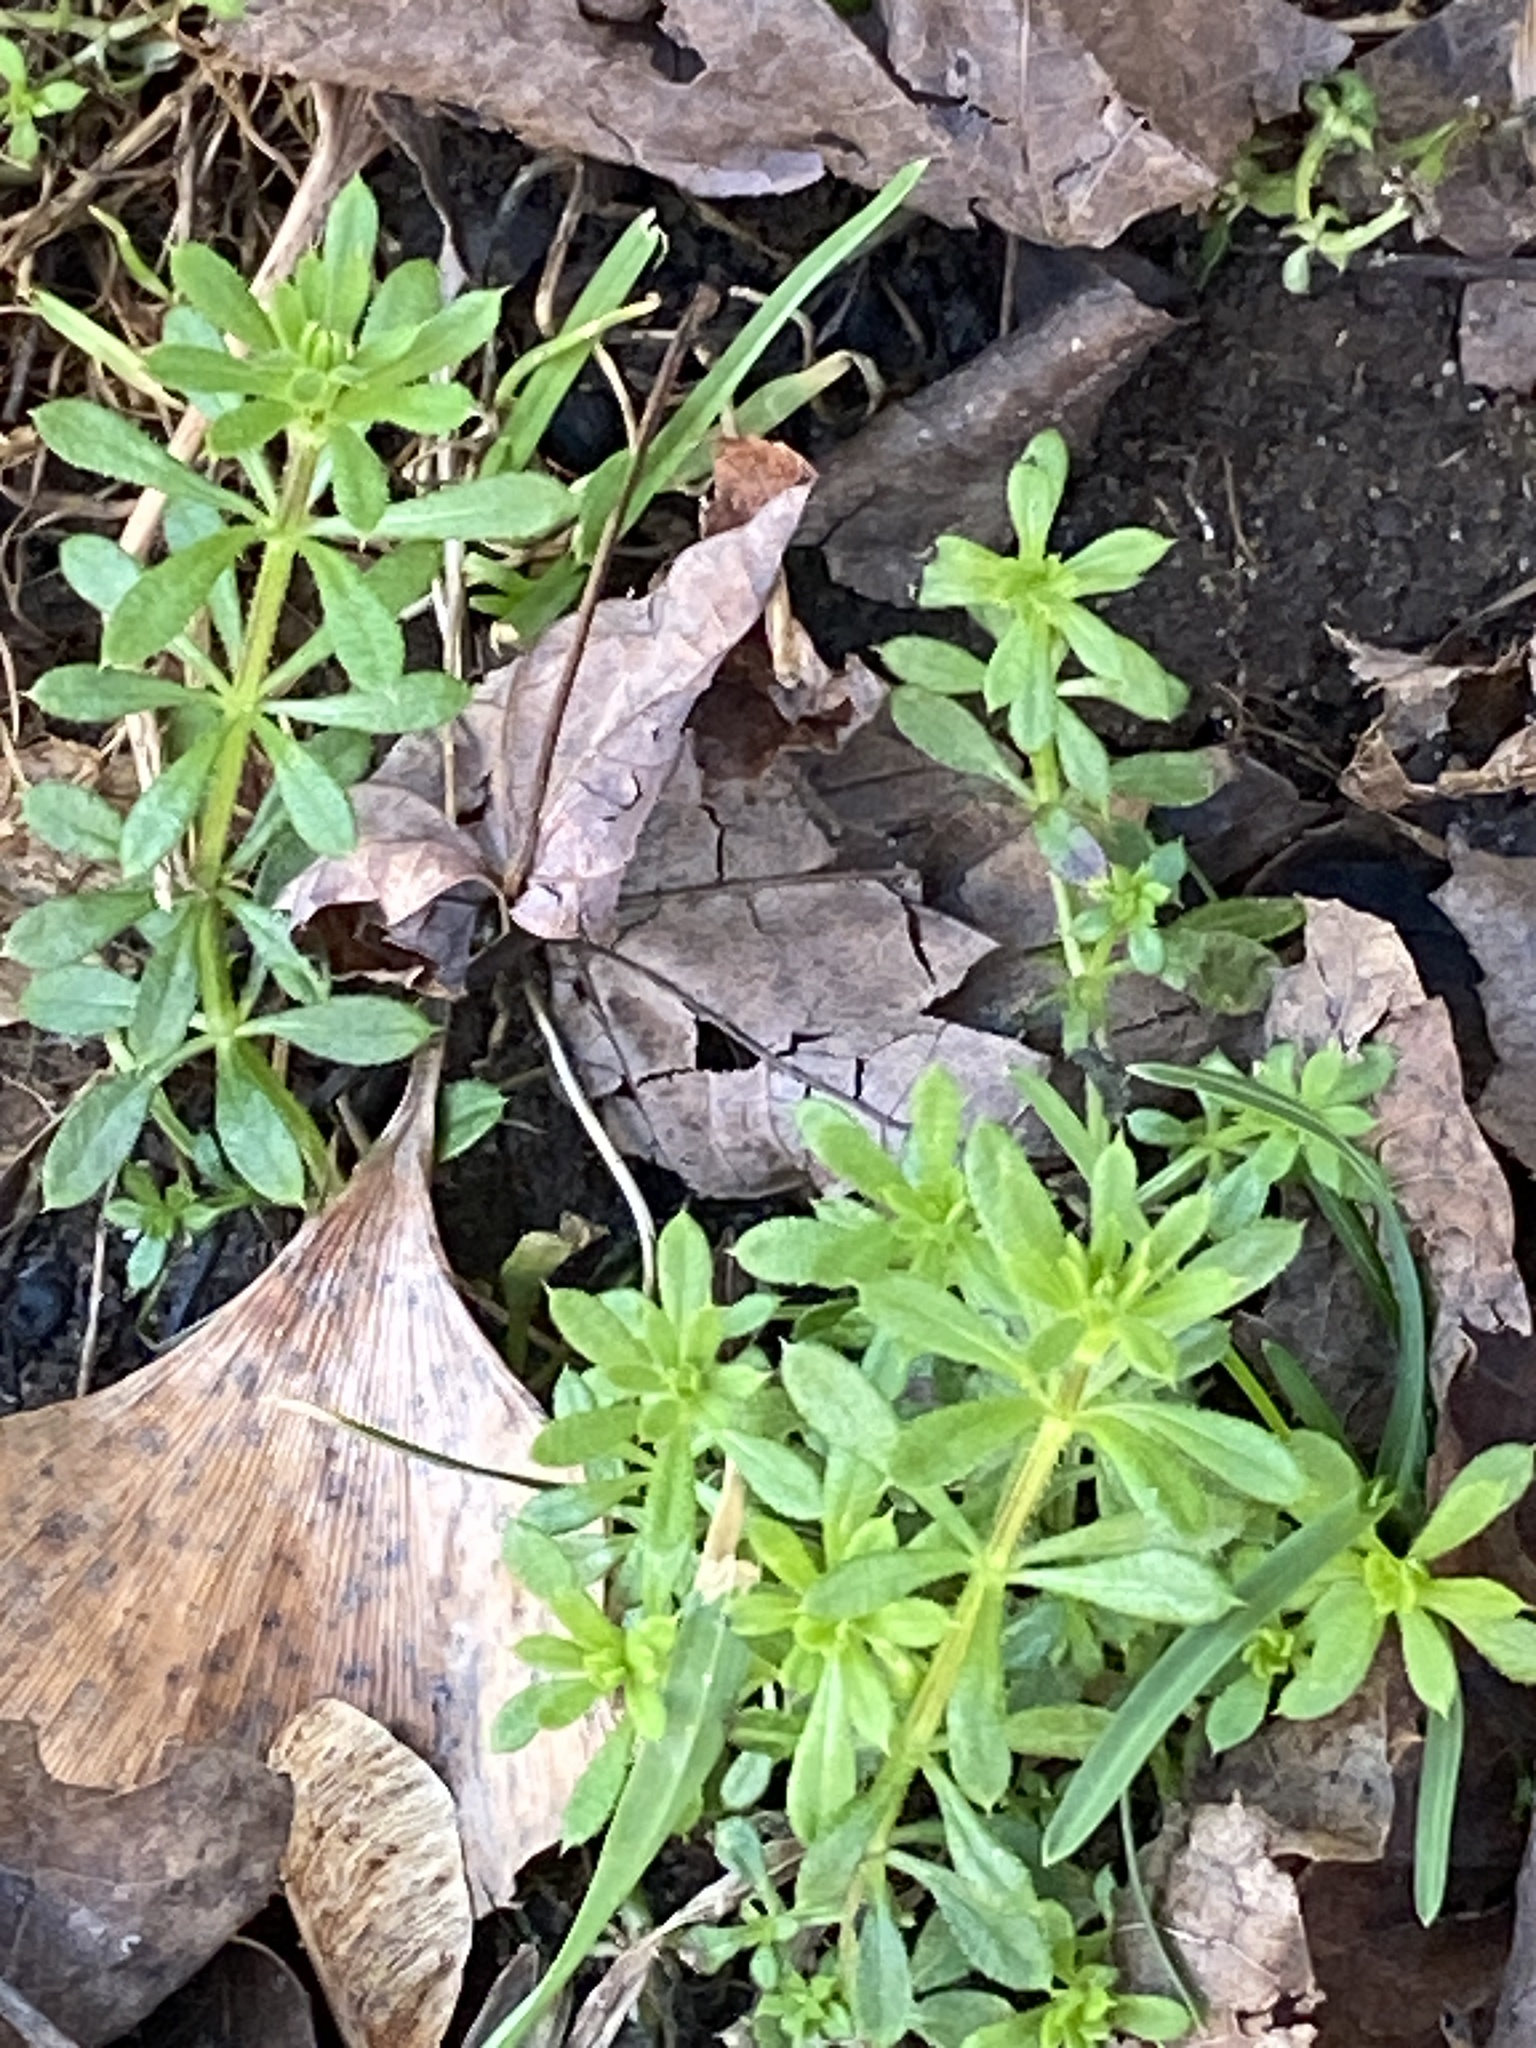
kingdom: Plantae
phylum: Tracheophyta
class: Magnoliopsida
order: Gentianales
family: Rubiaceae
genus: Galium
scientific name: Galium aparine
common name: Cleavers
